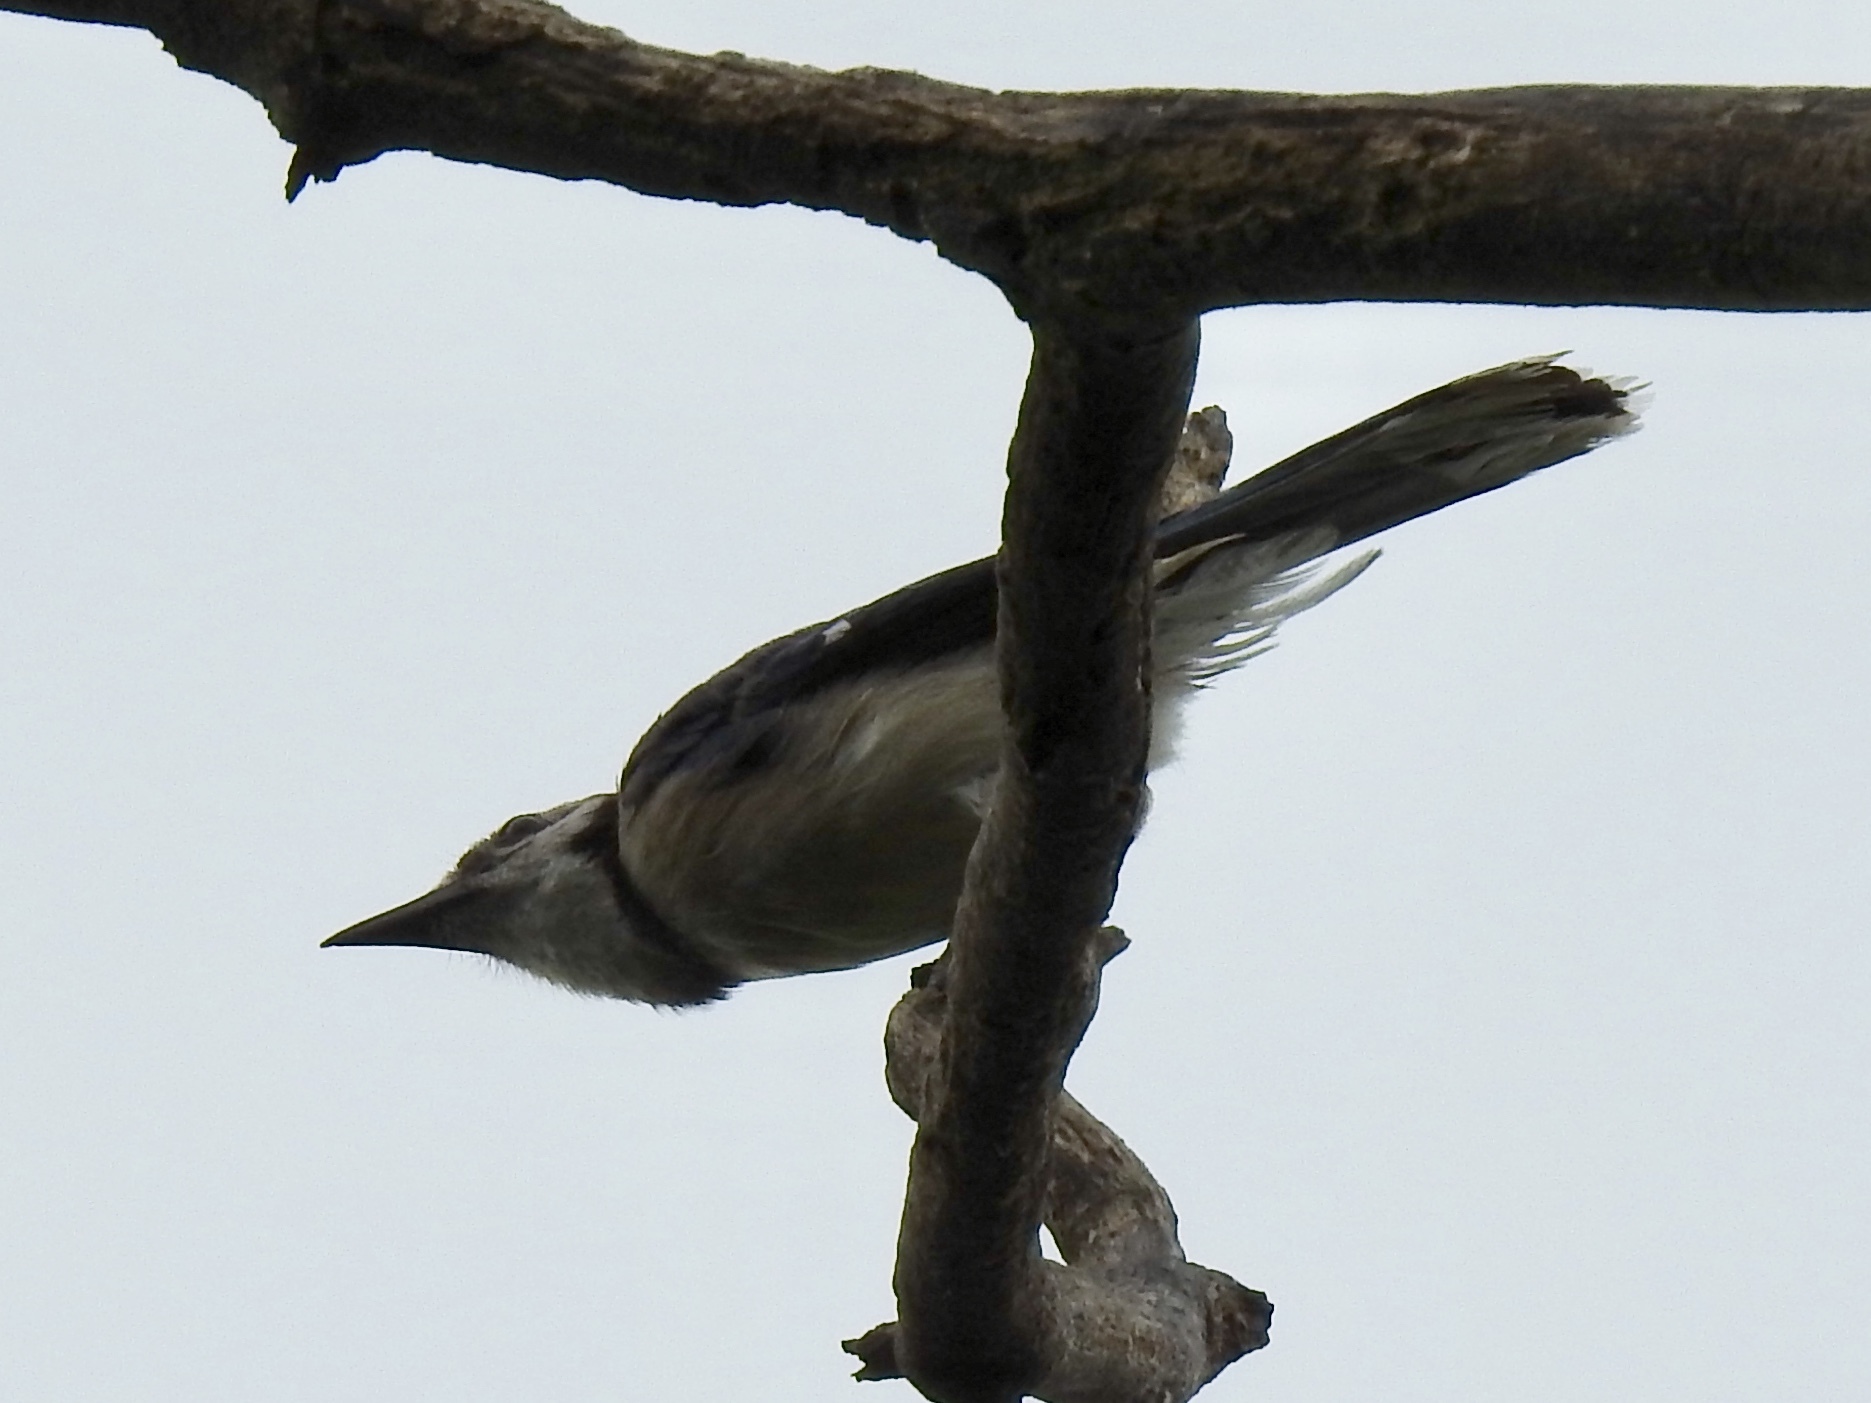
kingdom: Animalia
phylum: Chordata
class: Aves
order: Passeriformes
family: Corvidae
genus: Cyanocitta
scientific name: Cyanocitta cristata
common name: Blue jay
